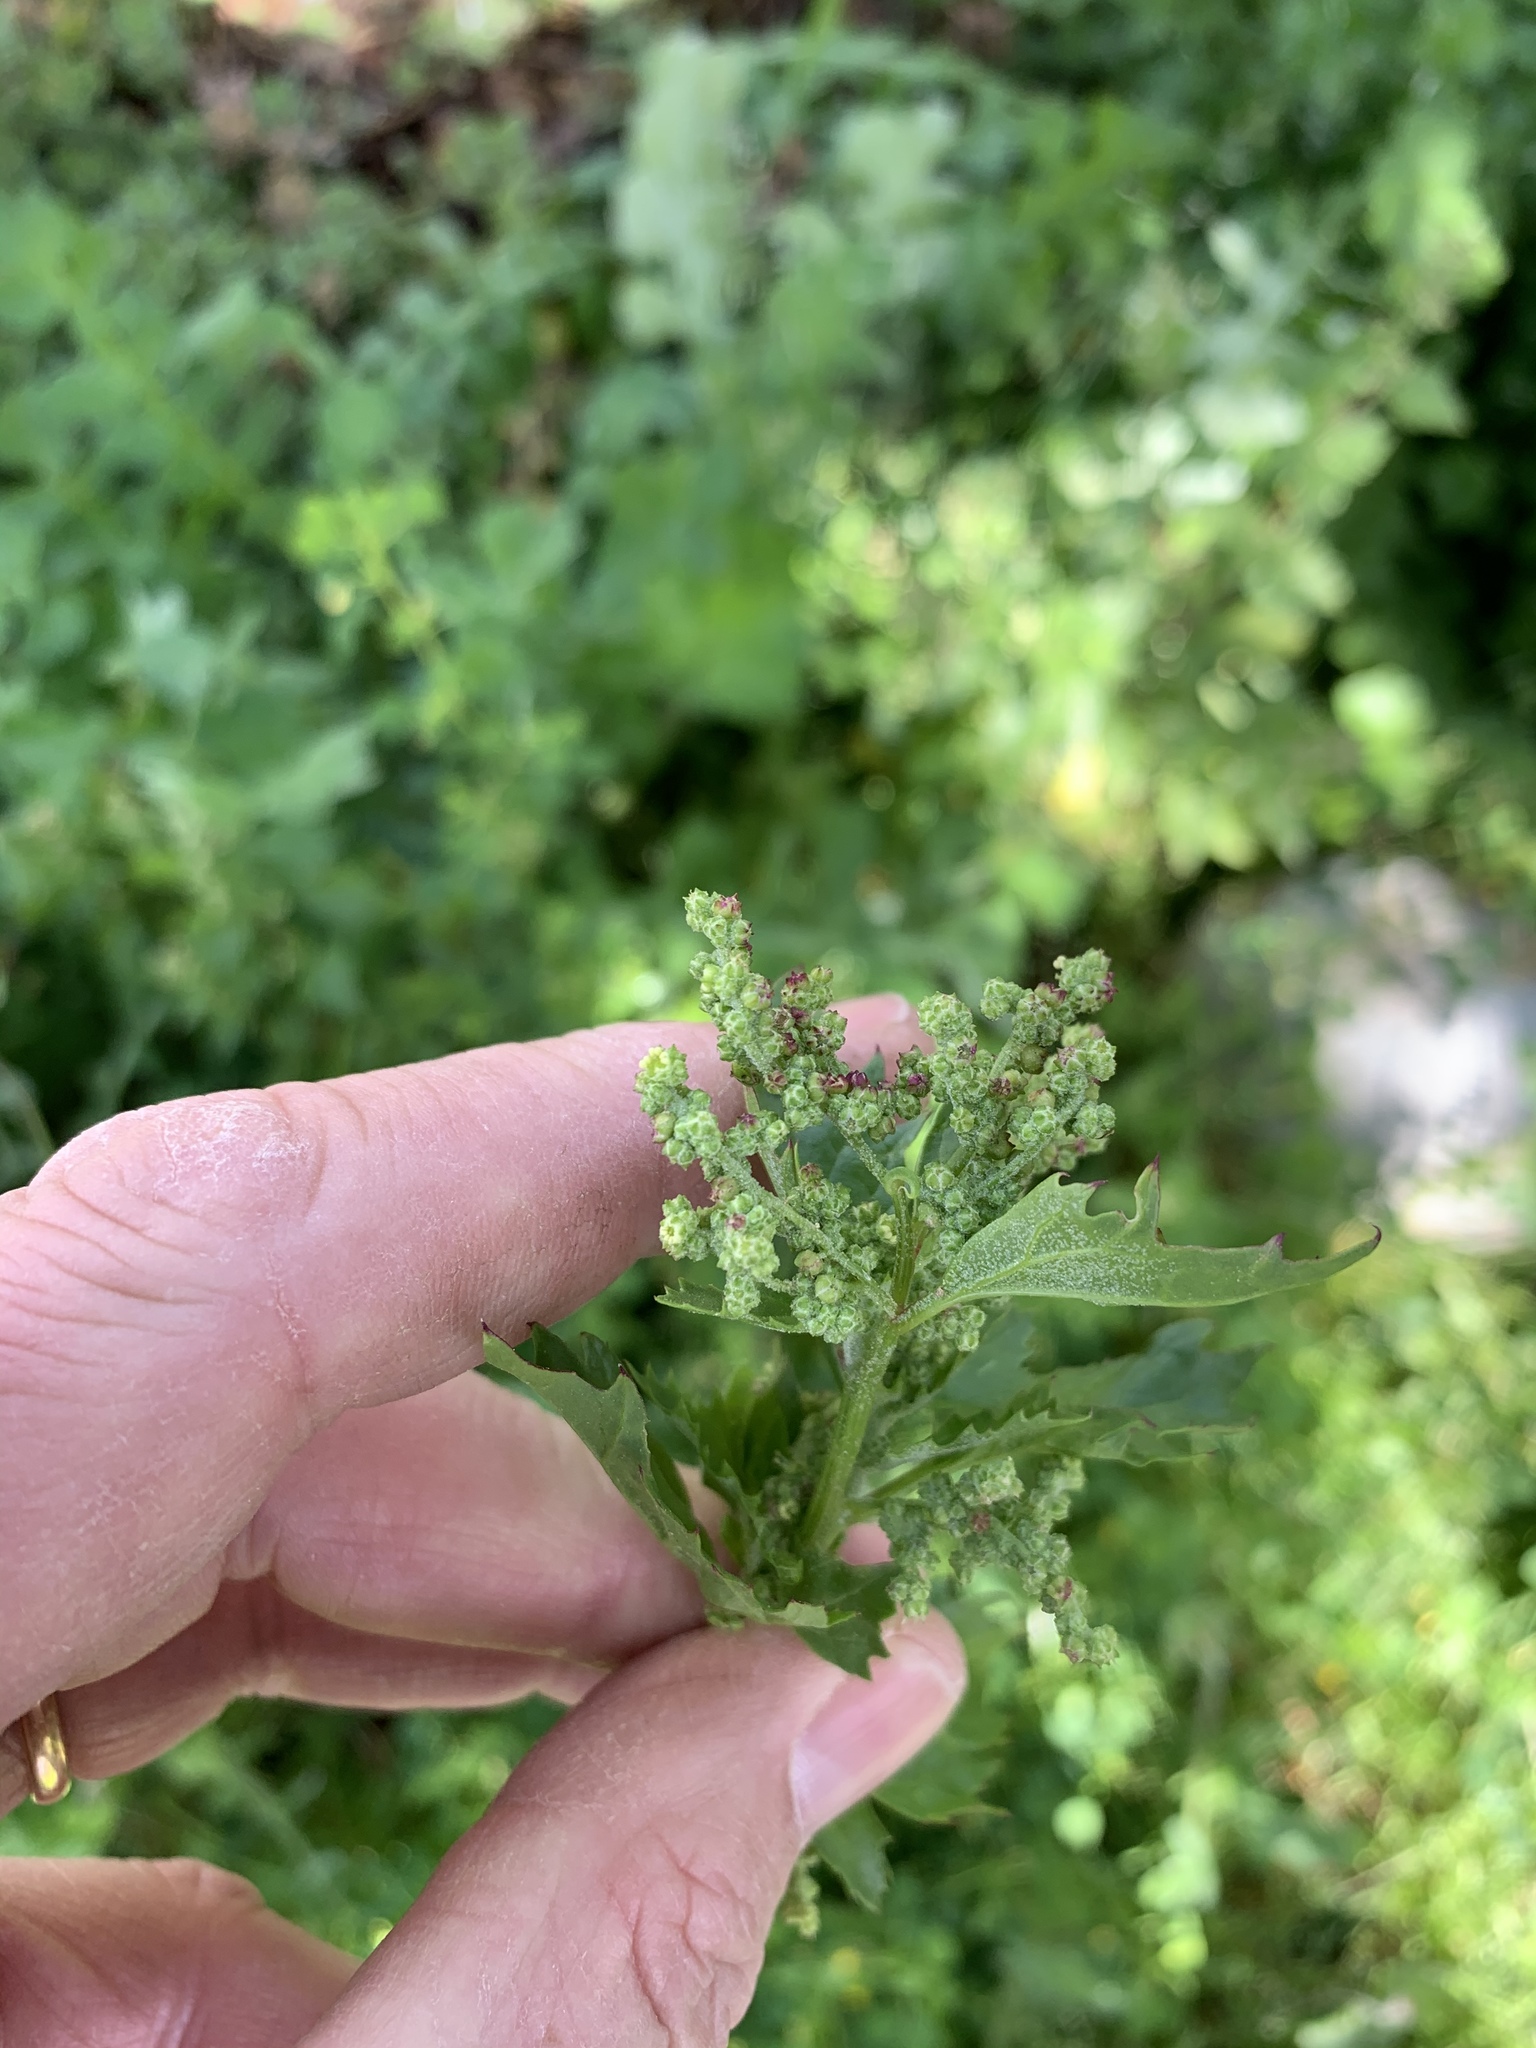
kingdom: Plantae
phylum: Tracheophyta
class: Magnoliopsida
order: Caryophyllales
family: Amaranthaceae
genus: Chenopodiastrum
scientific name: Chenopodiastrum murale
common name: Sowbane
